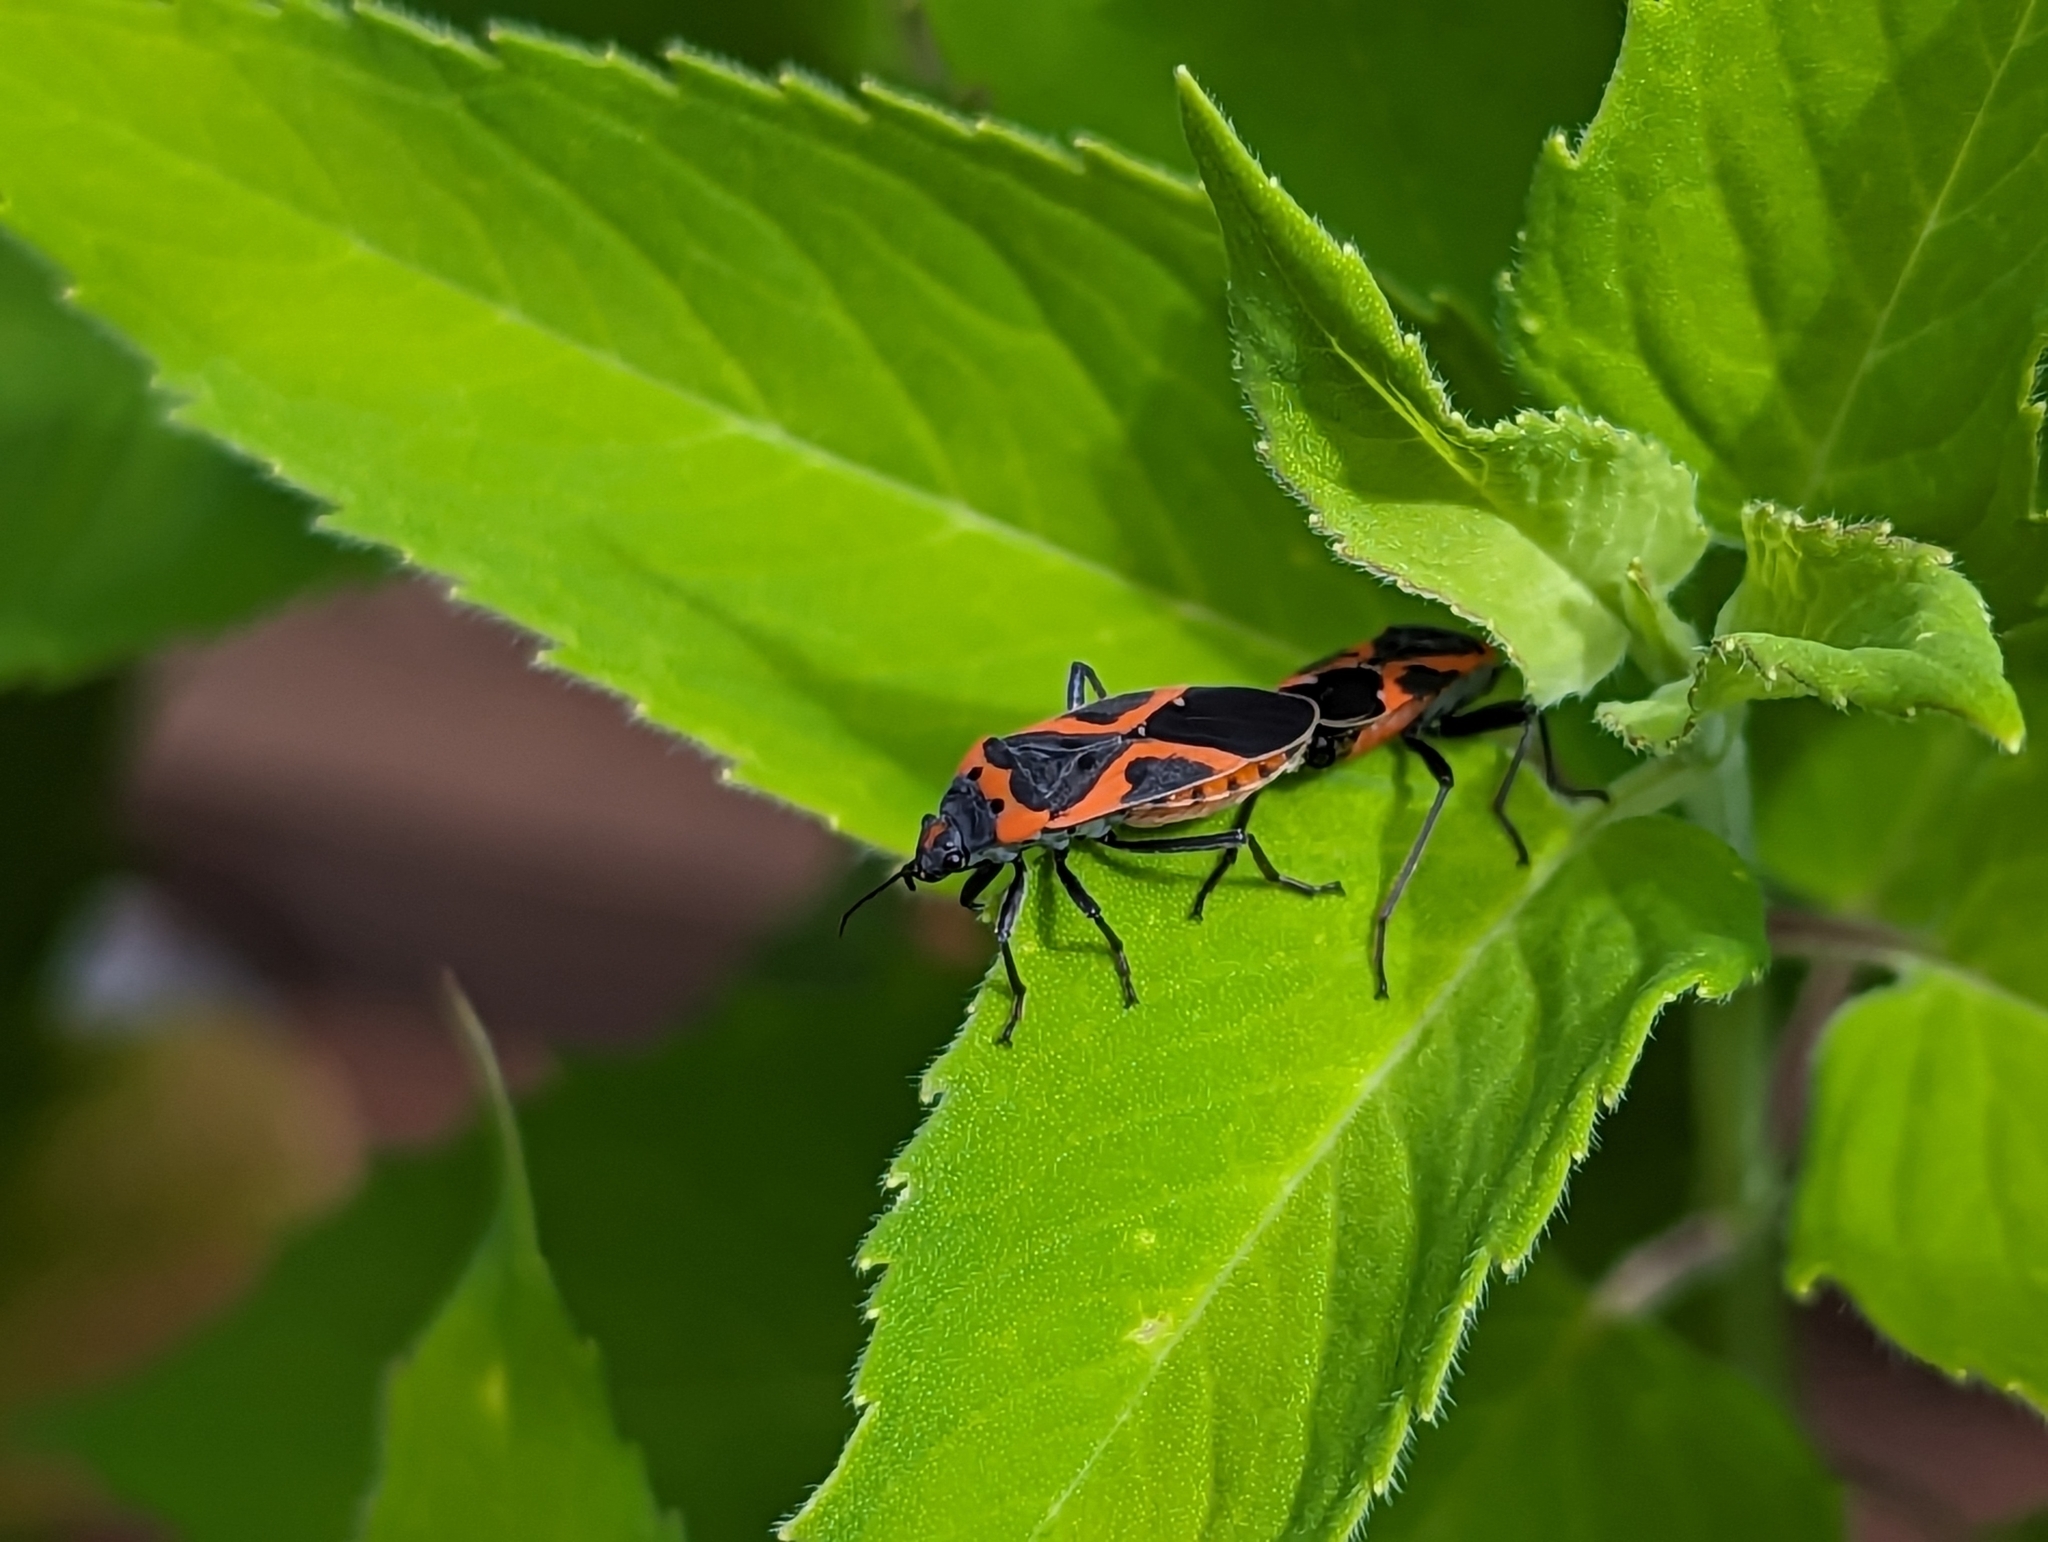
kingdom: Animalia
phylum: Arthropoda
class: Insecta
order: Hemiptera
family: Lygaeidae
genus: Lygaeus
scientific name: Lygaeus kalmii
